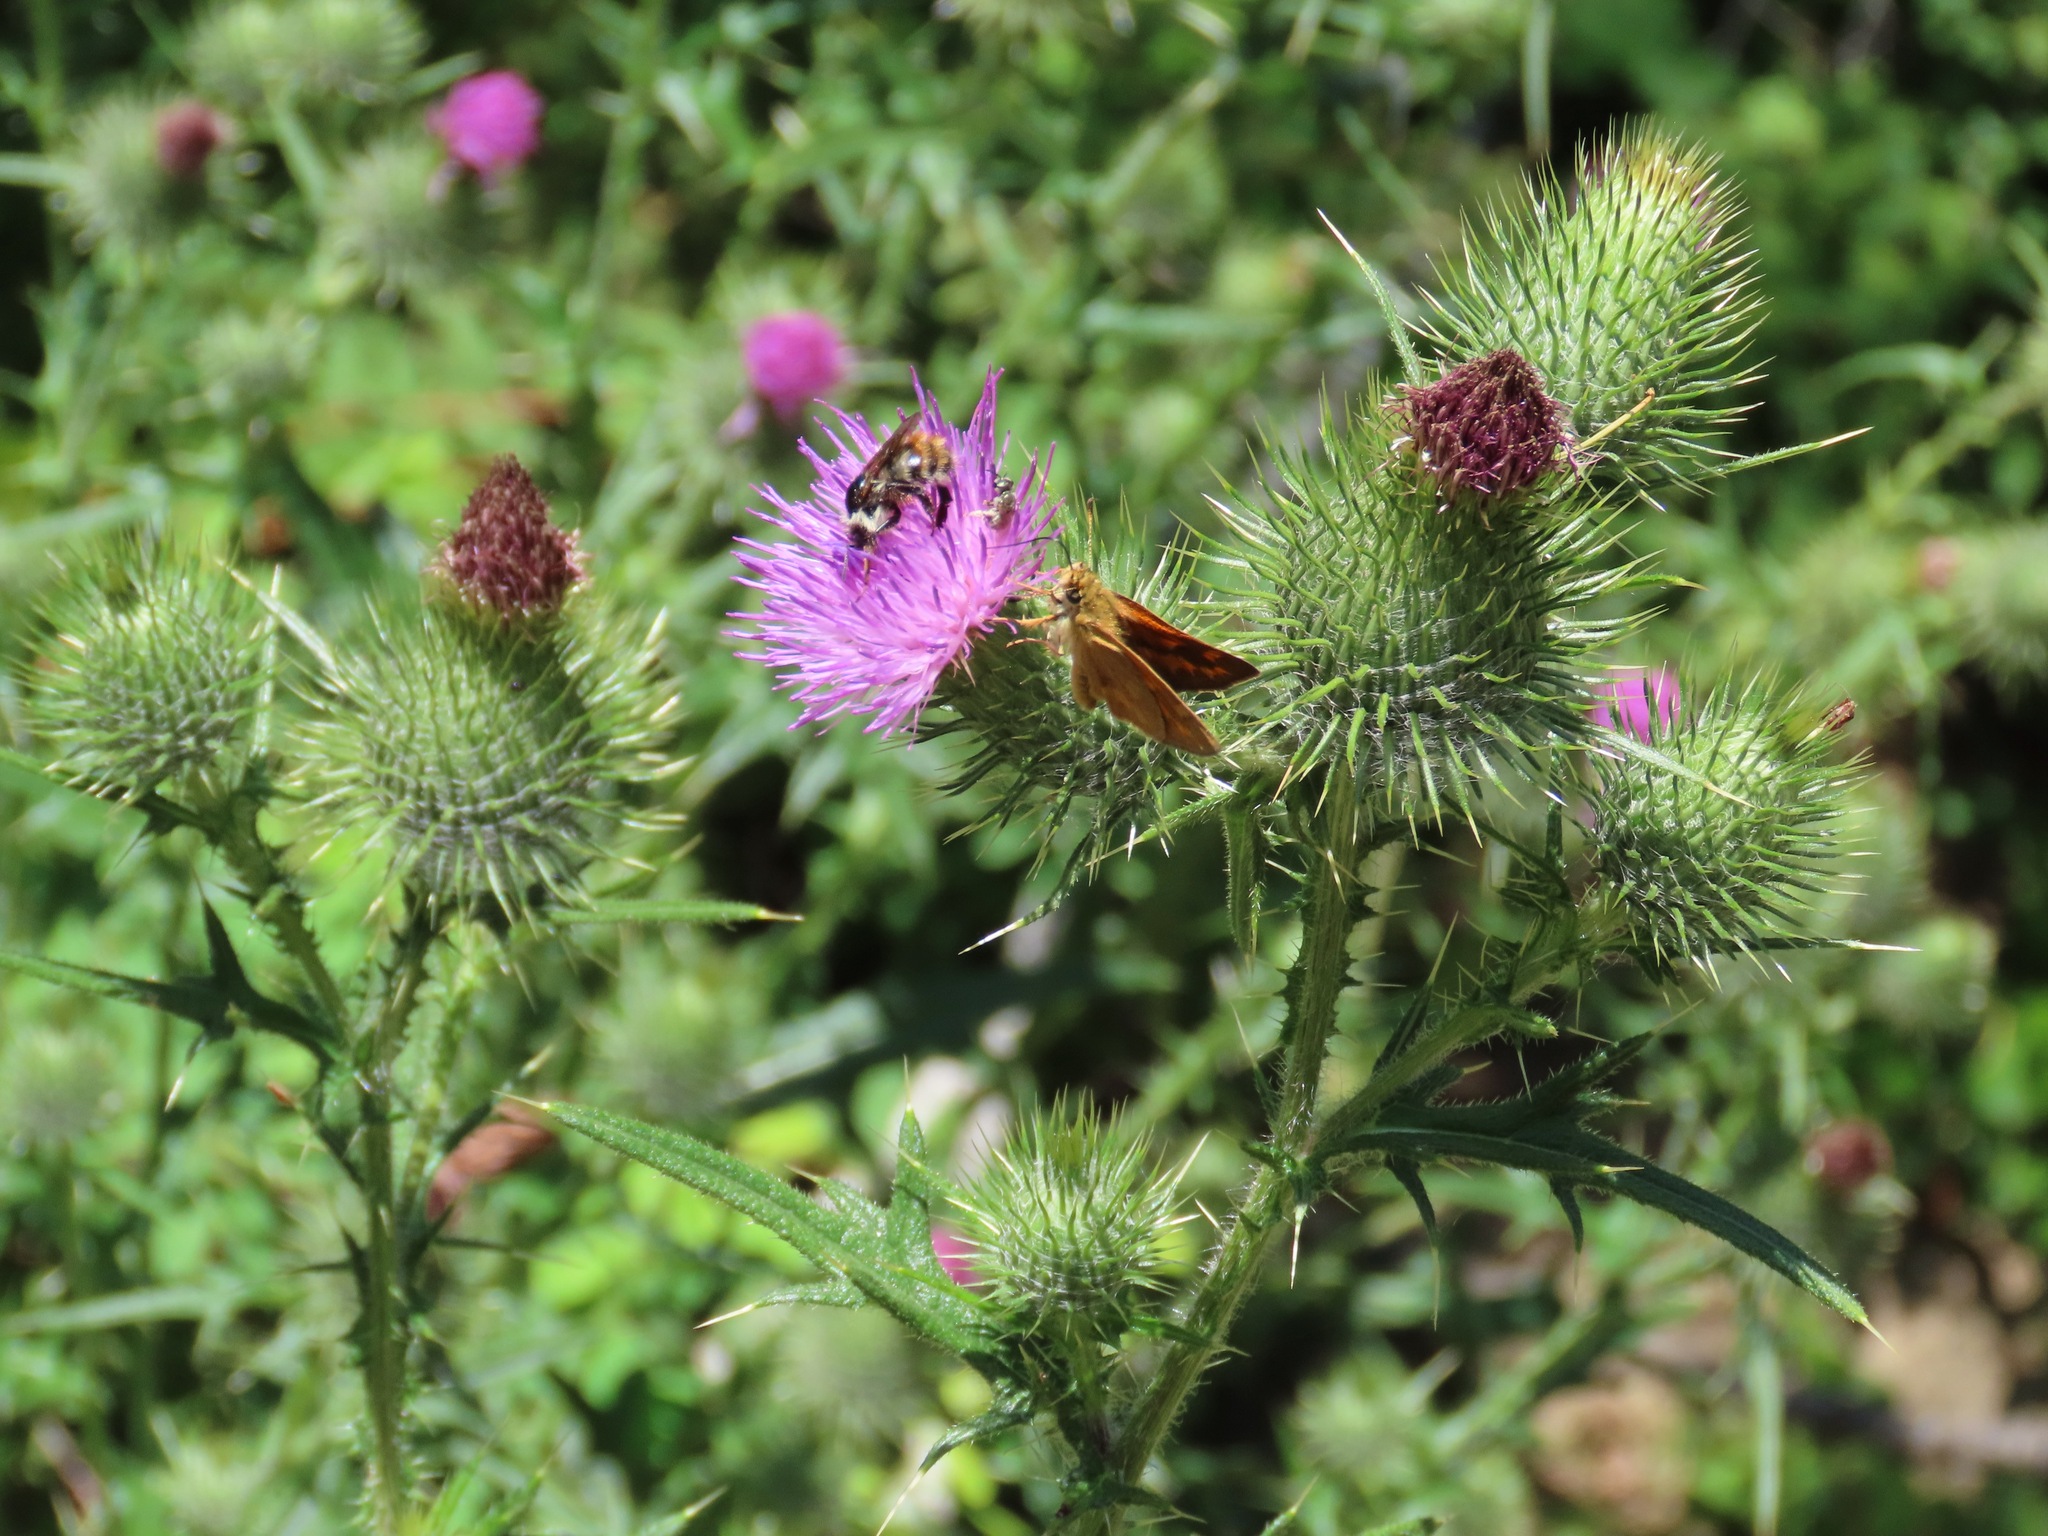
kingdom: Animalia
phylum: Arthropoda
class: Insecta
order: Lepidoptera
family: Hesperiidae
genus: Ochlodes
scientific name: Ochlodes sylvanoides
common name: Woodland skipper
